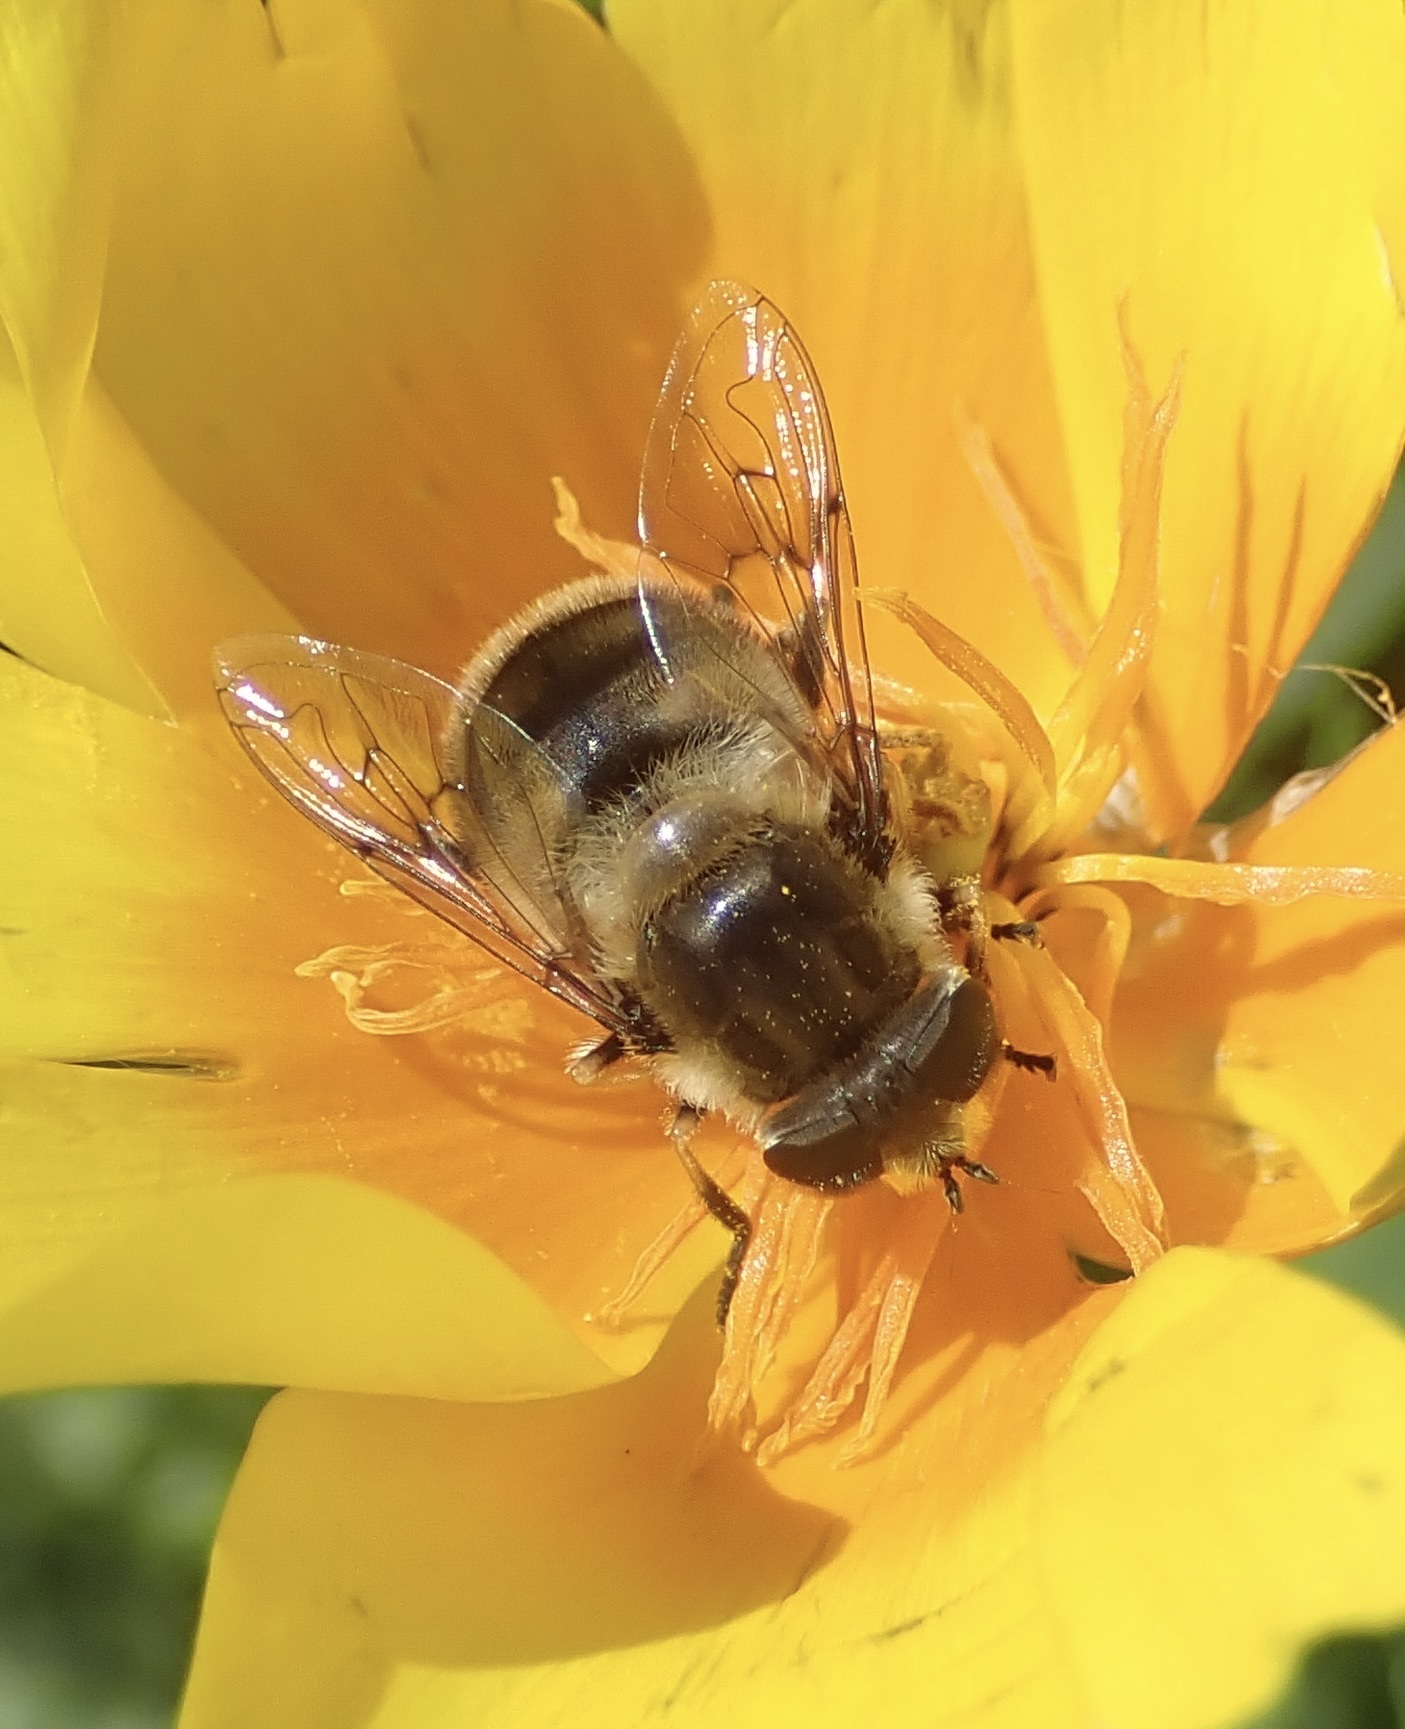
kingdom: Animalia
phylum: Arthropoda
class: Insecta
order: Diptera
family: Syrphidae
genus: Eristalis
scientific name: Eristalis anthophorina
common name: Orange-spotted drone fly
